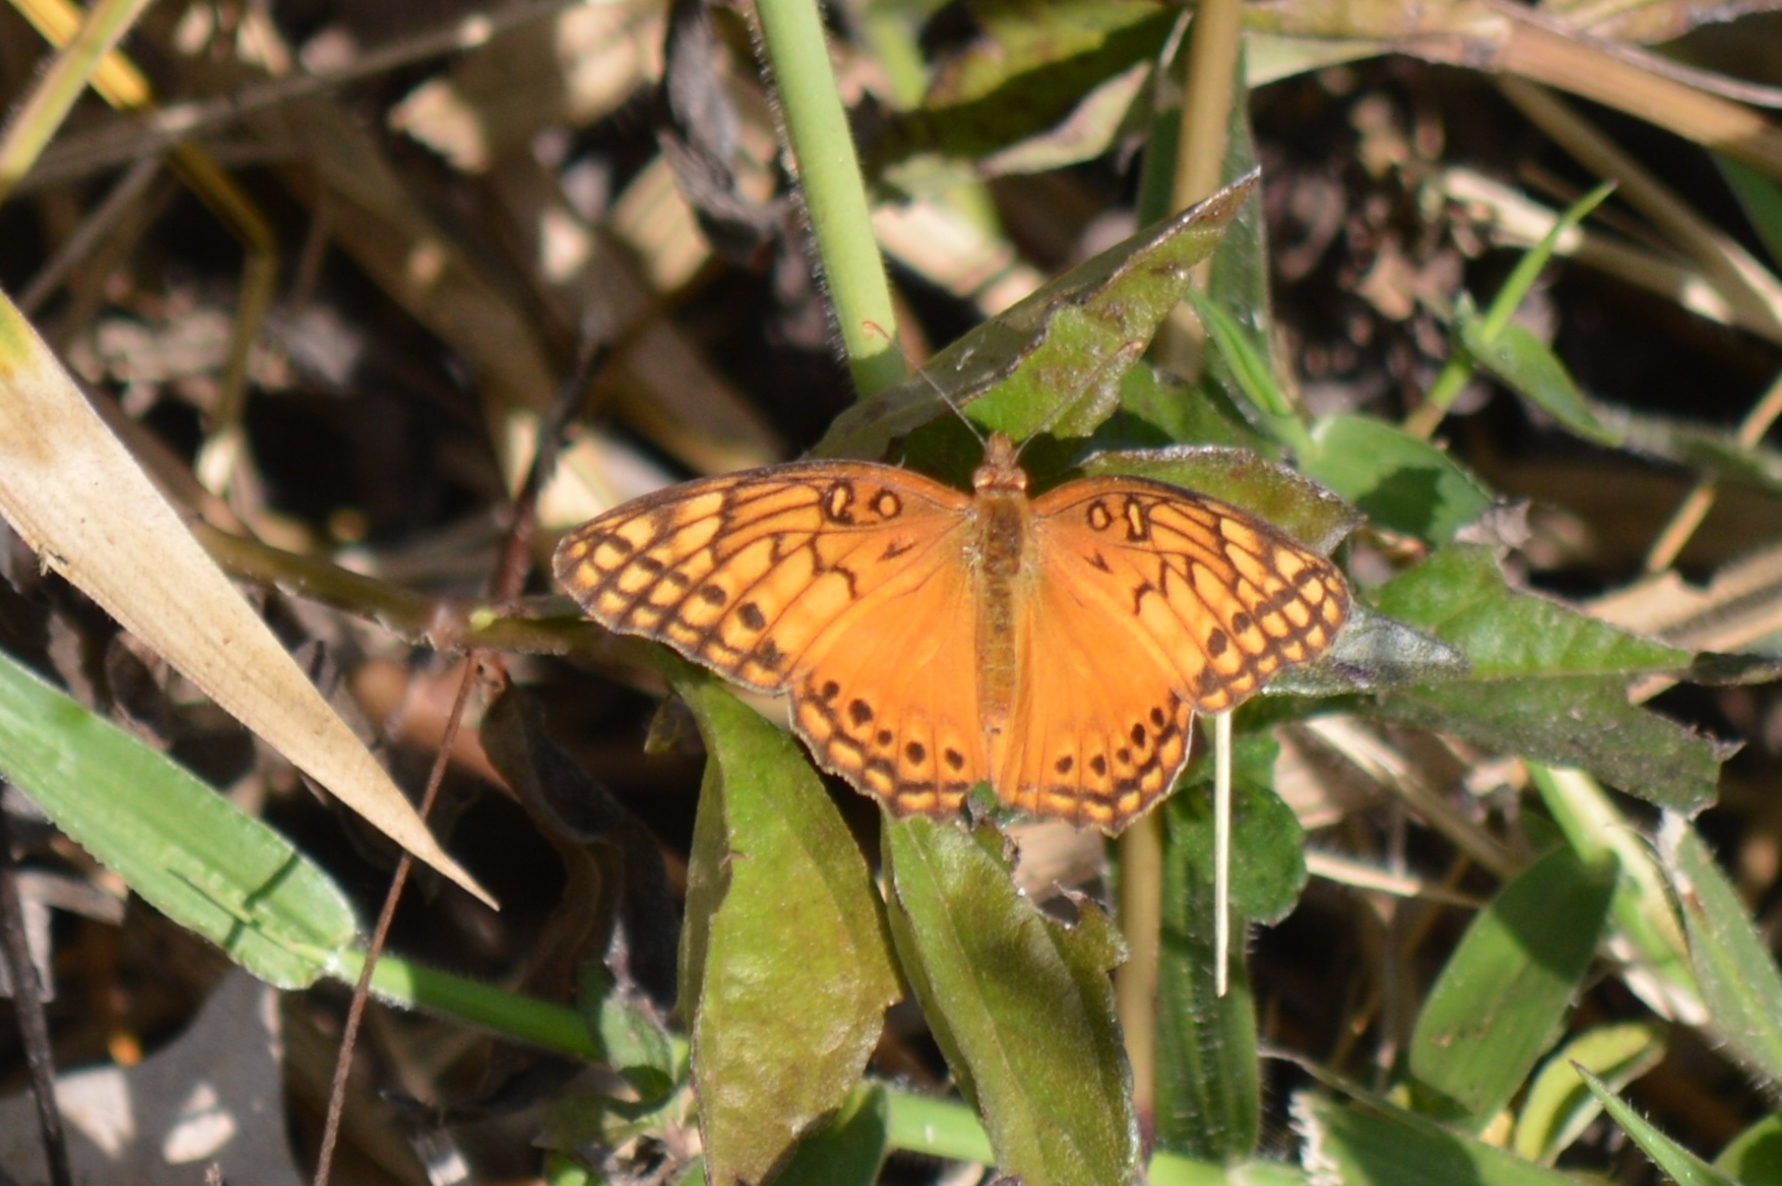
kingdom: Animalia
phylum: Arthropoda
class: Insecta
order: Lepidoptera
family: Nymphalidae
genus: Euptoieta
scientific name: Euptoieta hegesia
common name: Mexican fritillary
